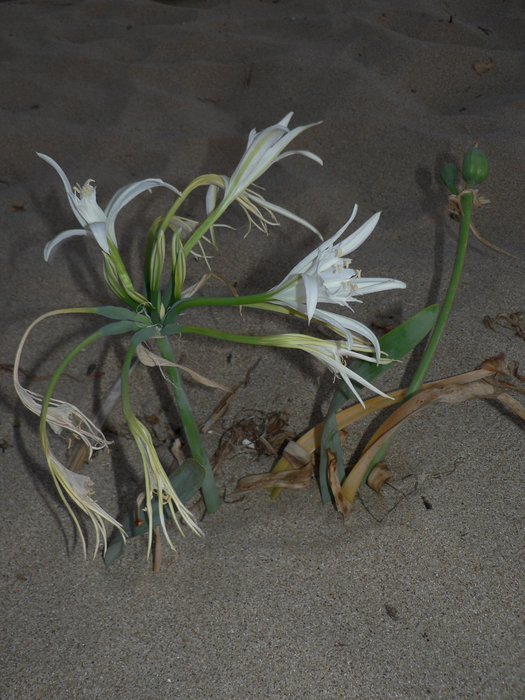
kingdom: Plantae
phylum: Tracheophyta
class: Liliopsida
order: Asparagales
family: Amaryllidaceae
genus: Pancratium
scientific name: Pancratium maritimum
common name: Sea-daffodil
